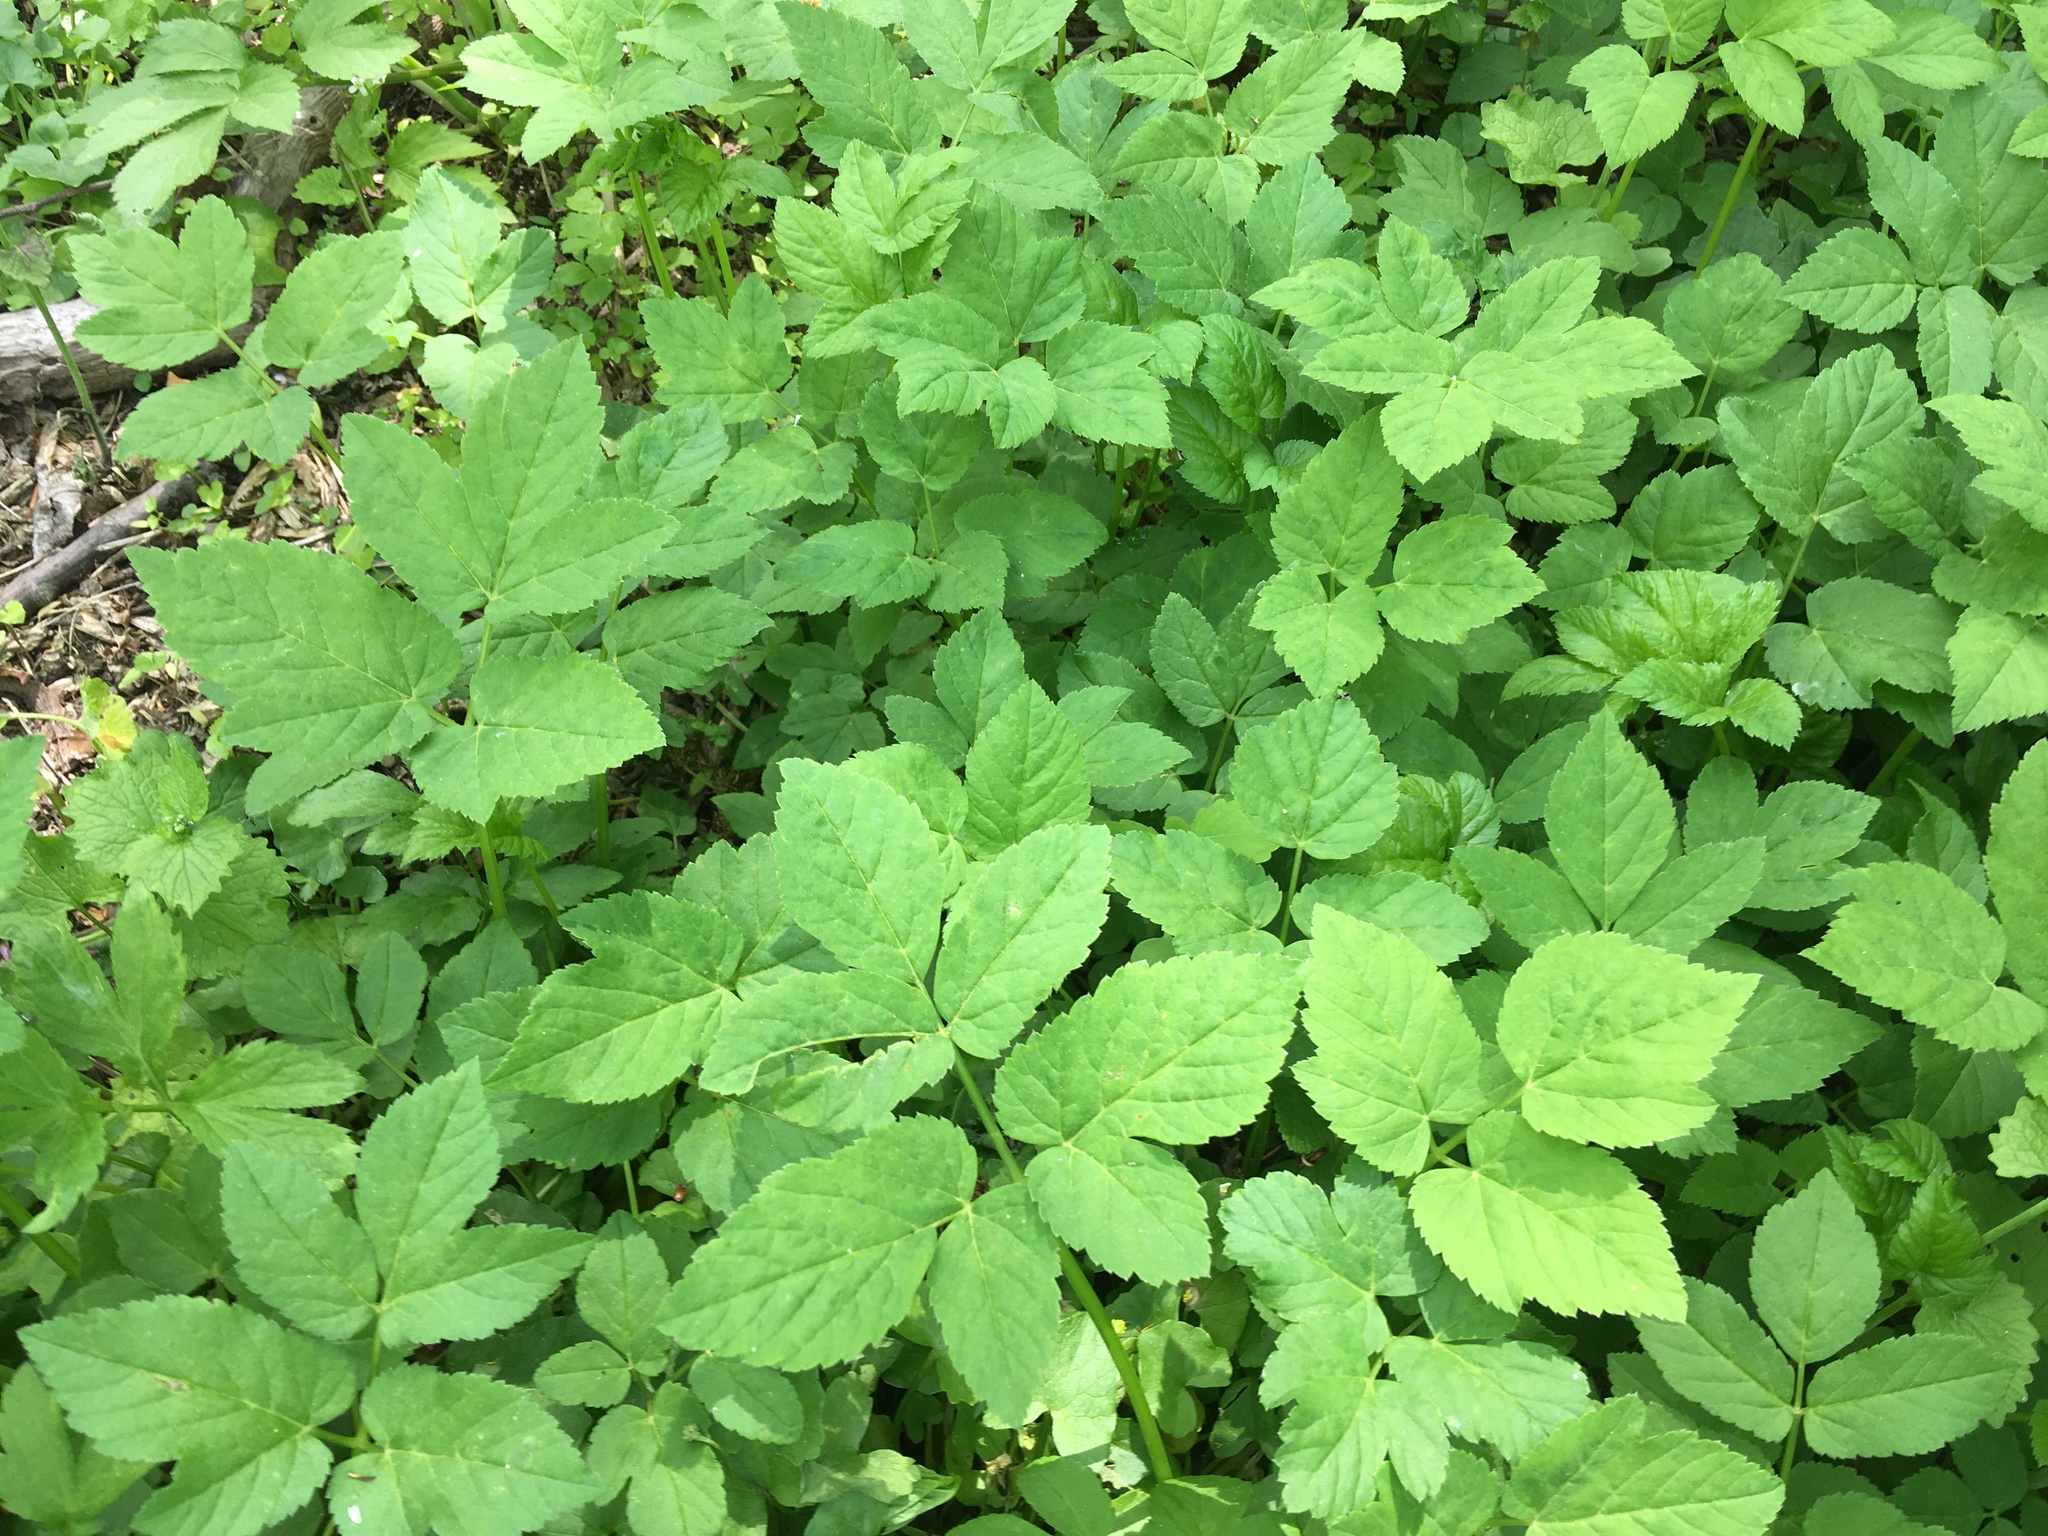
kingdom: Plantae
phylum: Tracheophyta
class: Magnoliopsida
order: Apiales
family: Apiaceae
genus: Aegopodium
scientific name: Aegopodium podagraria
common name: Ground-elder
